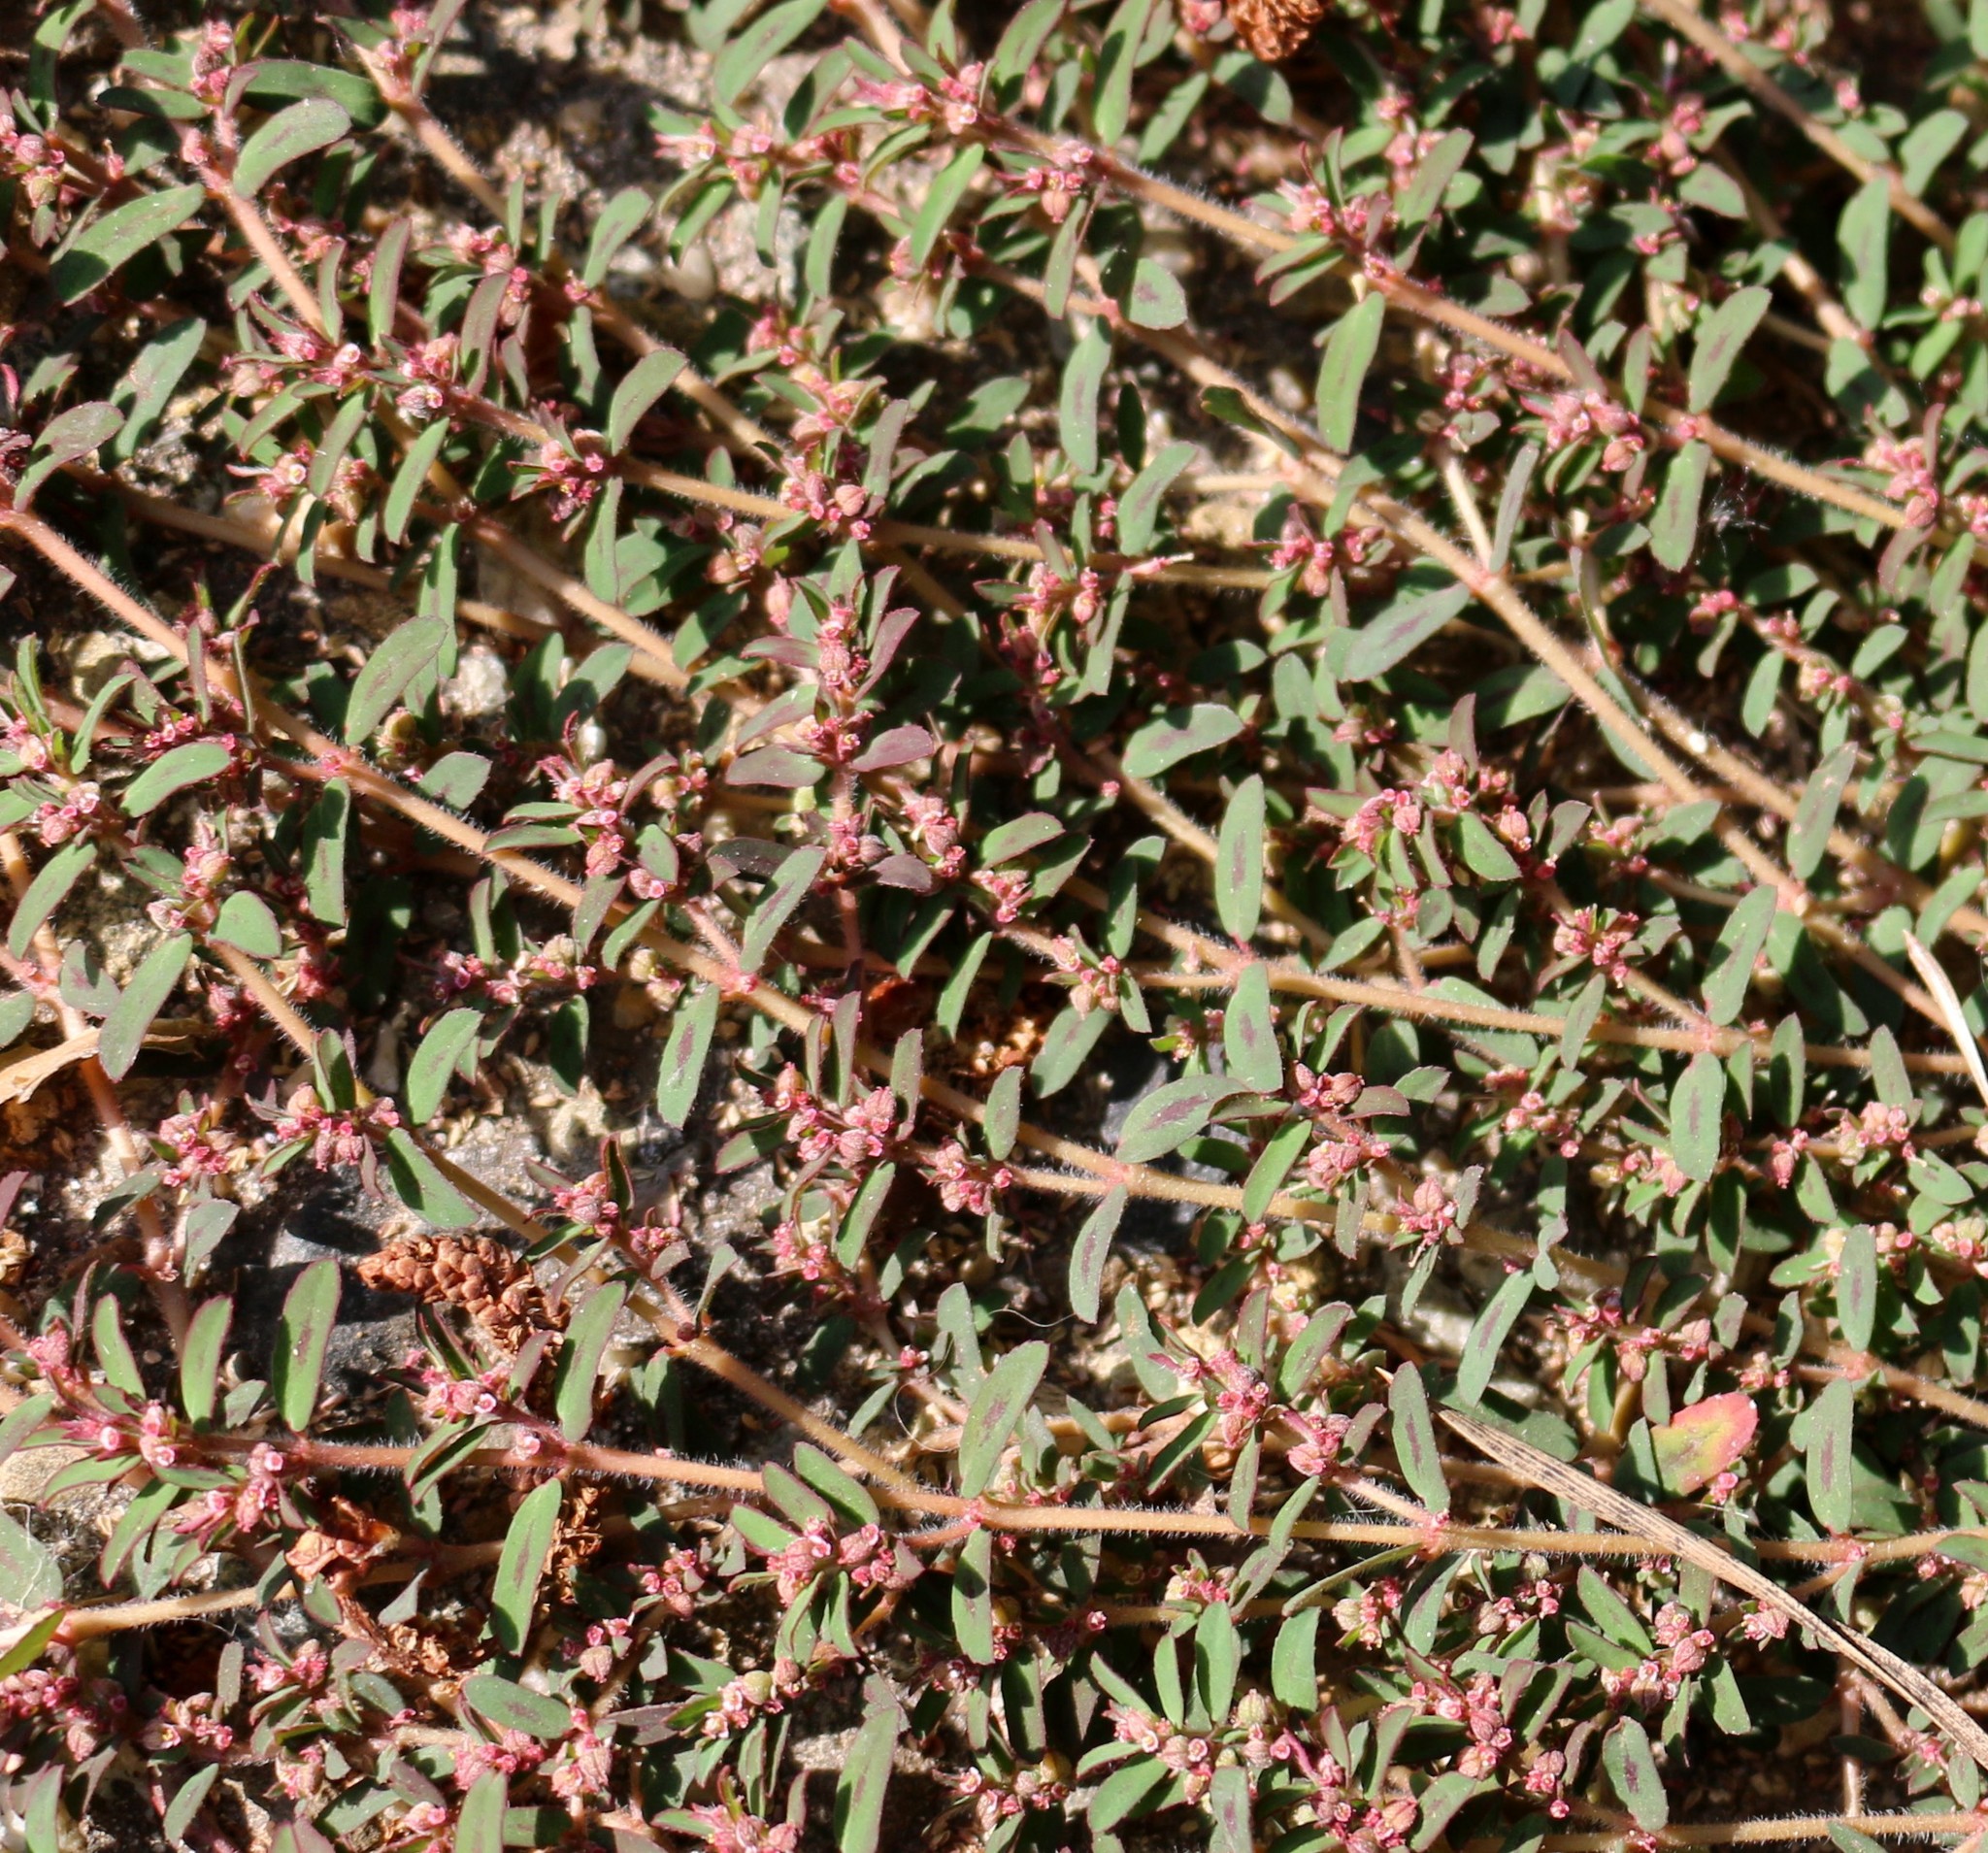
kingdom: Plantae
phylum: Tracheophyta
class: Magnoliopsida
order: Malpighiales
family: Euphorbiaceae
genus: Euphorbia
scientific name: Euphorbia maculata
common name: Spotted spurge
